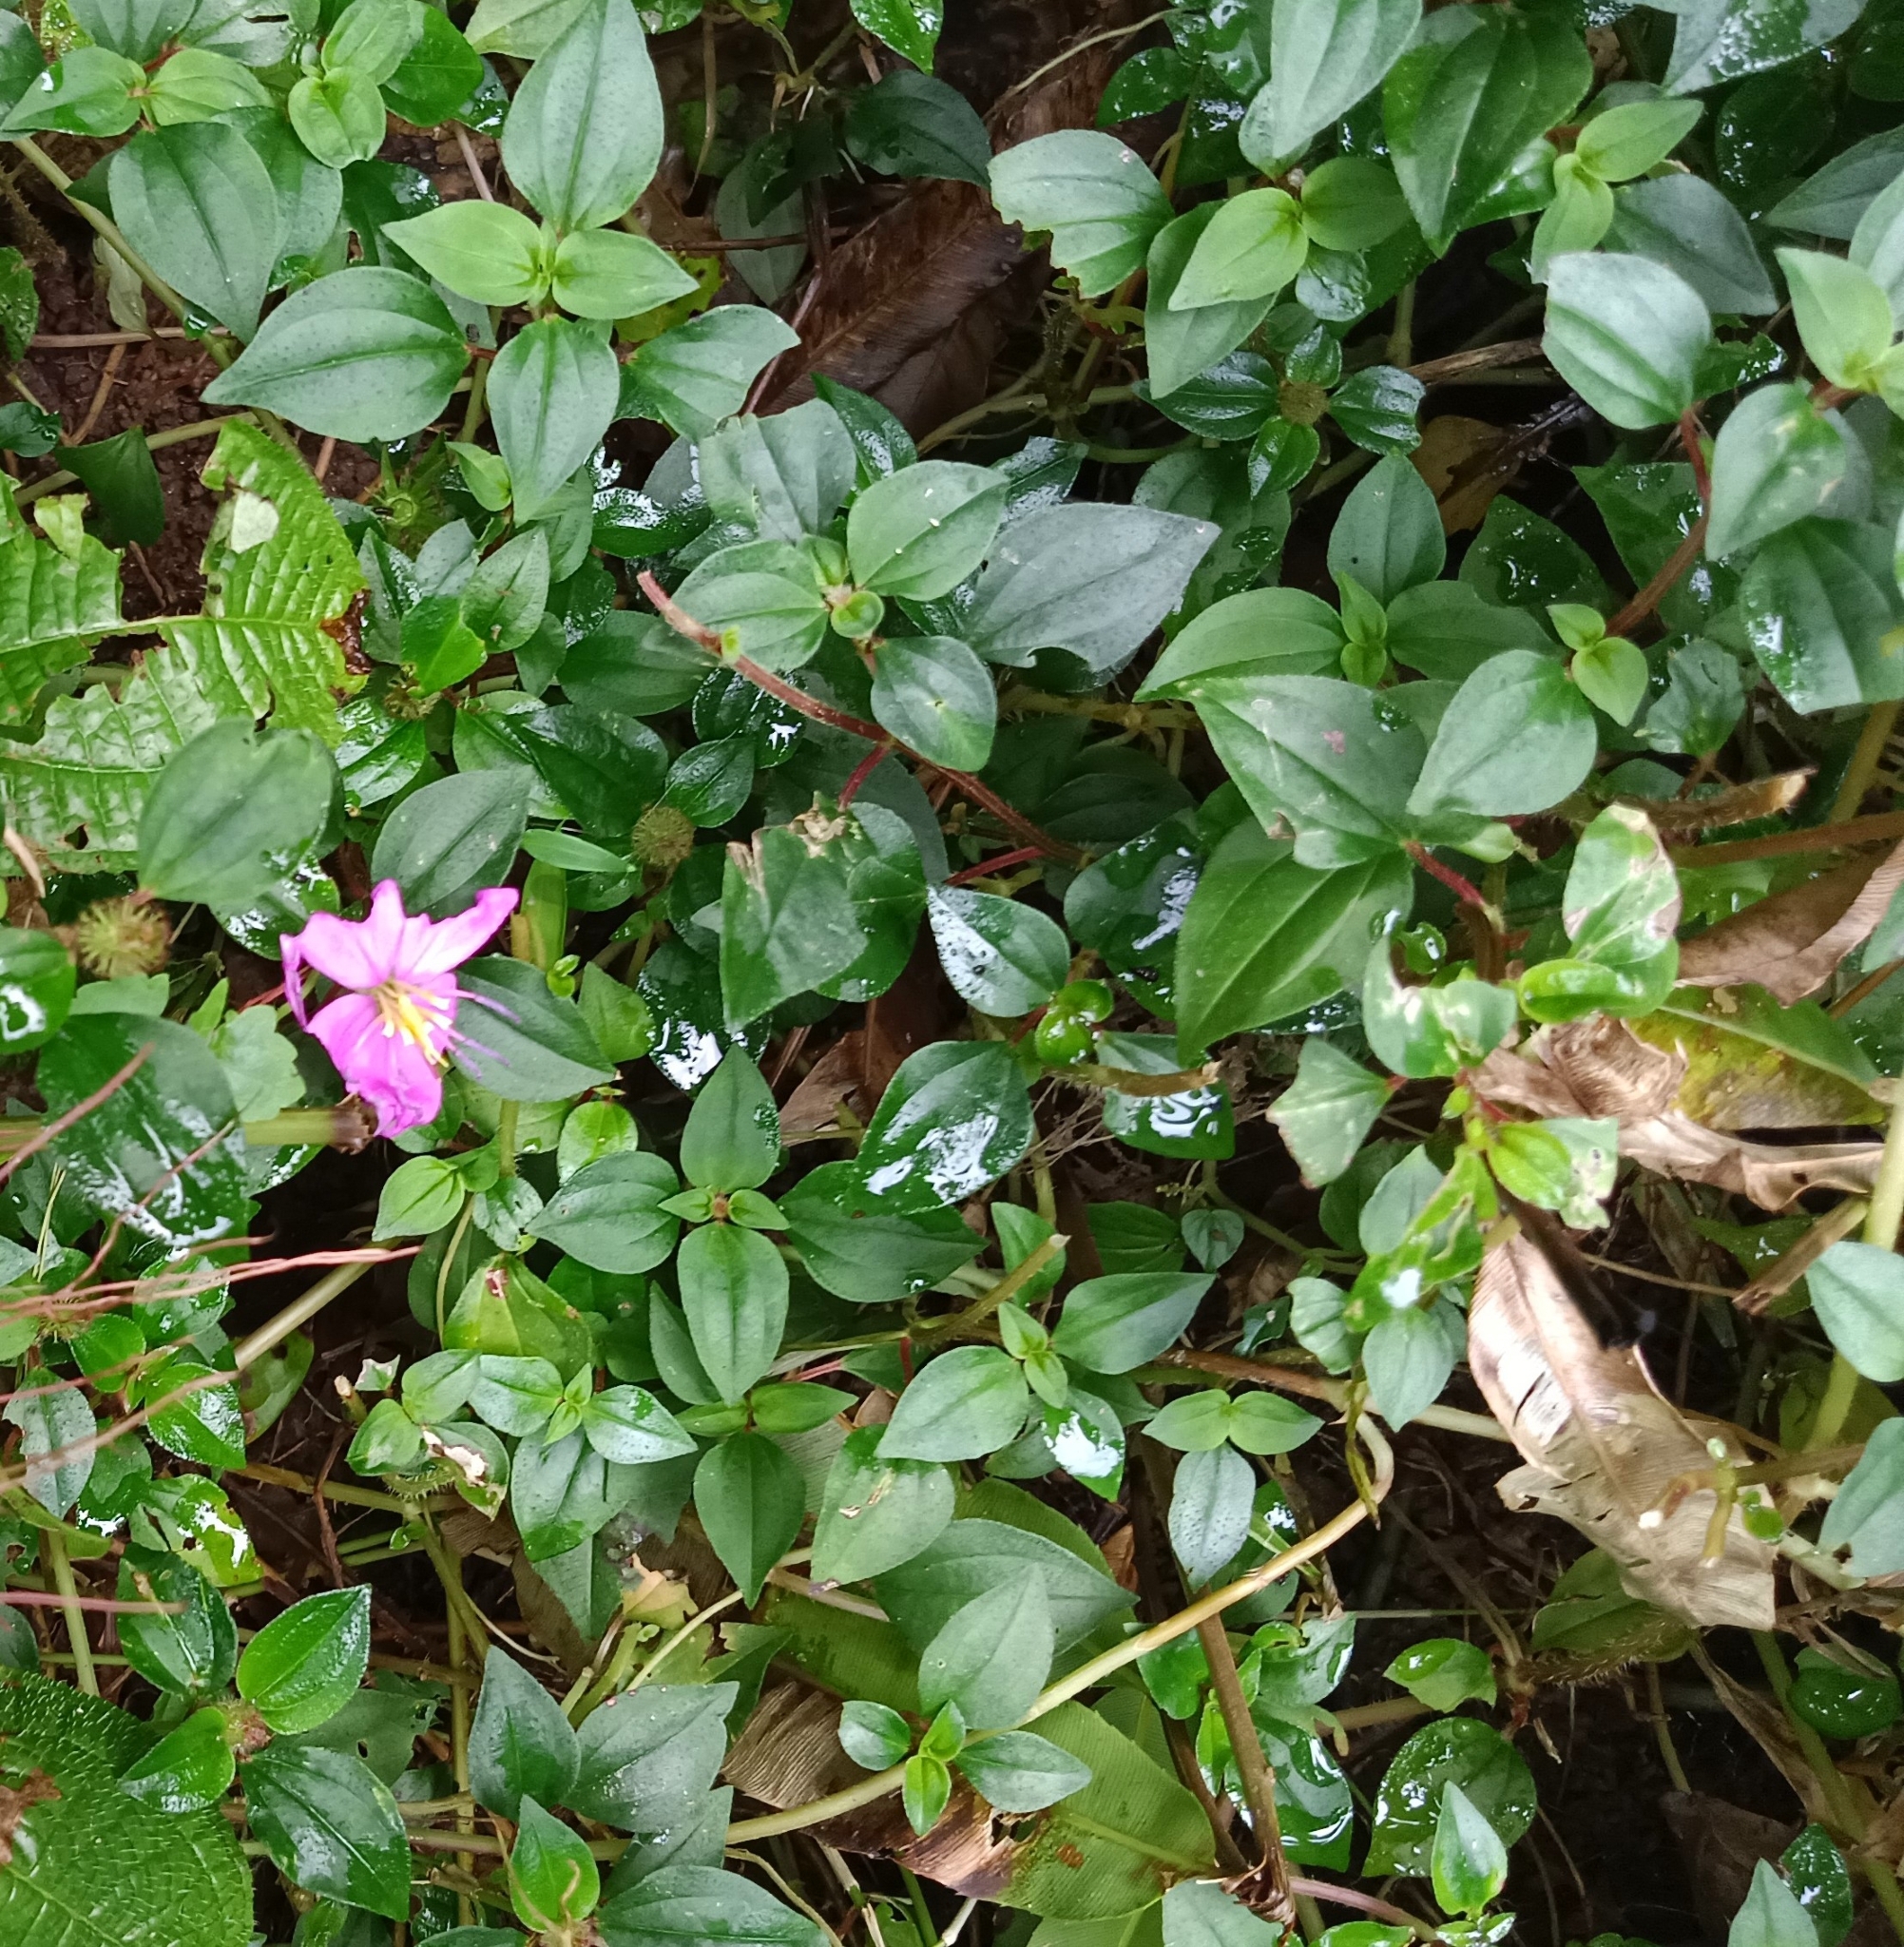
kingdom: Plantae
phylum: Tracheophyta
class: Magnoliopsida
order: Myrtales
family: Melastomataceae
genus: Heterotis
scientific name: Heterotis rotundifolia
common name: Pinklady
